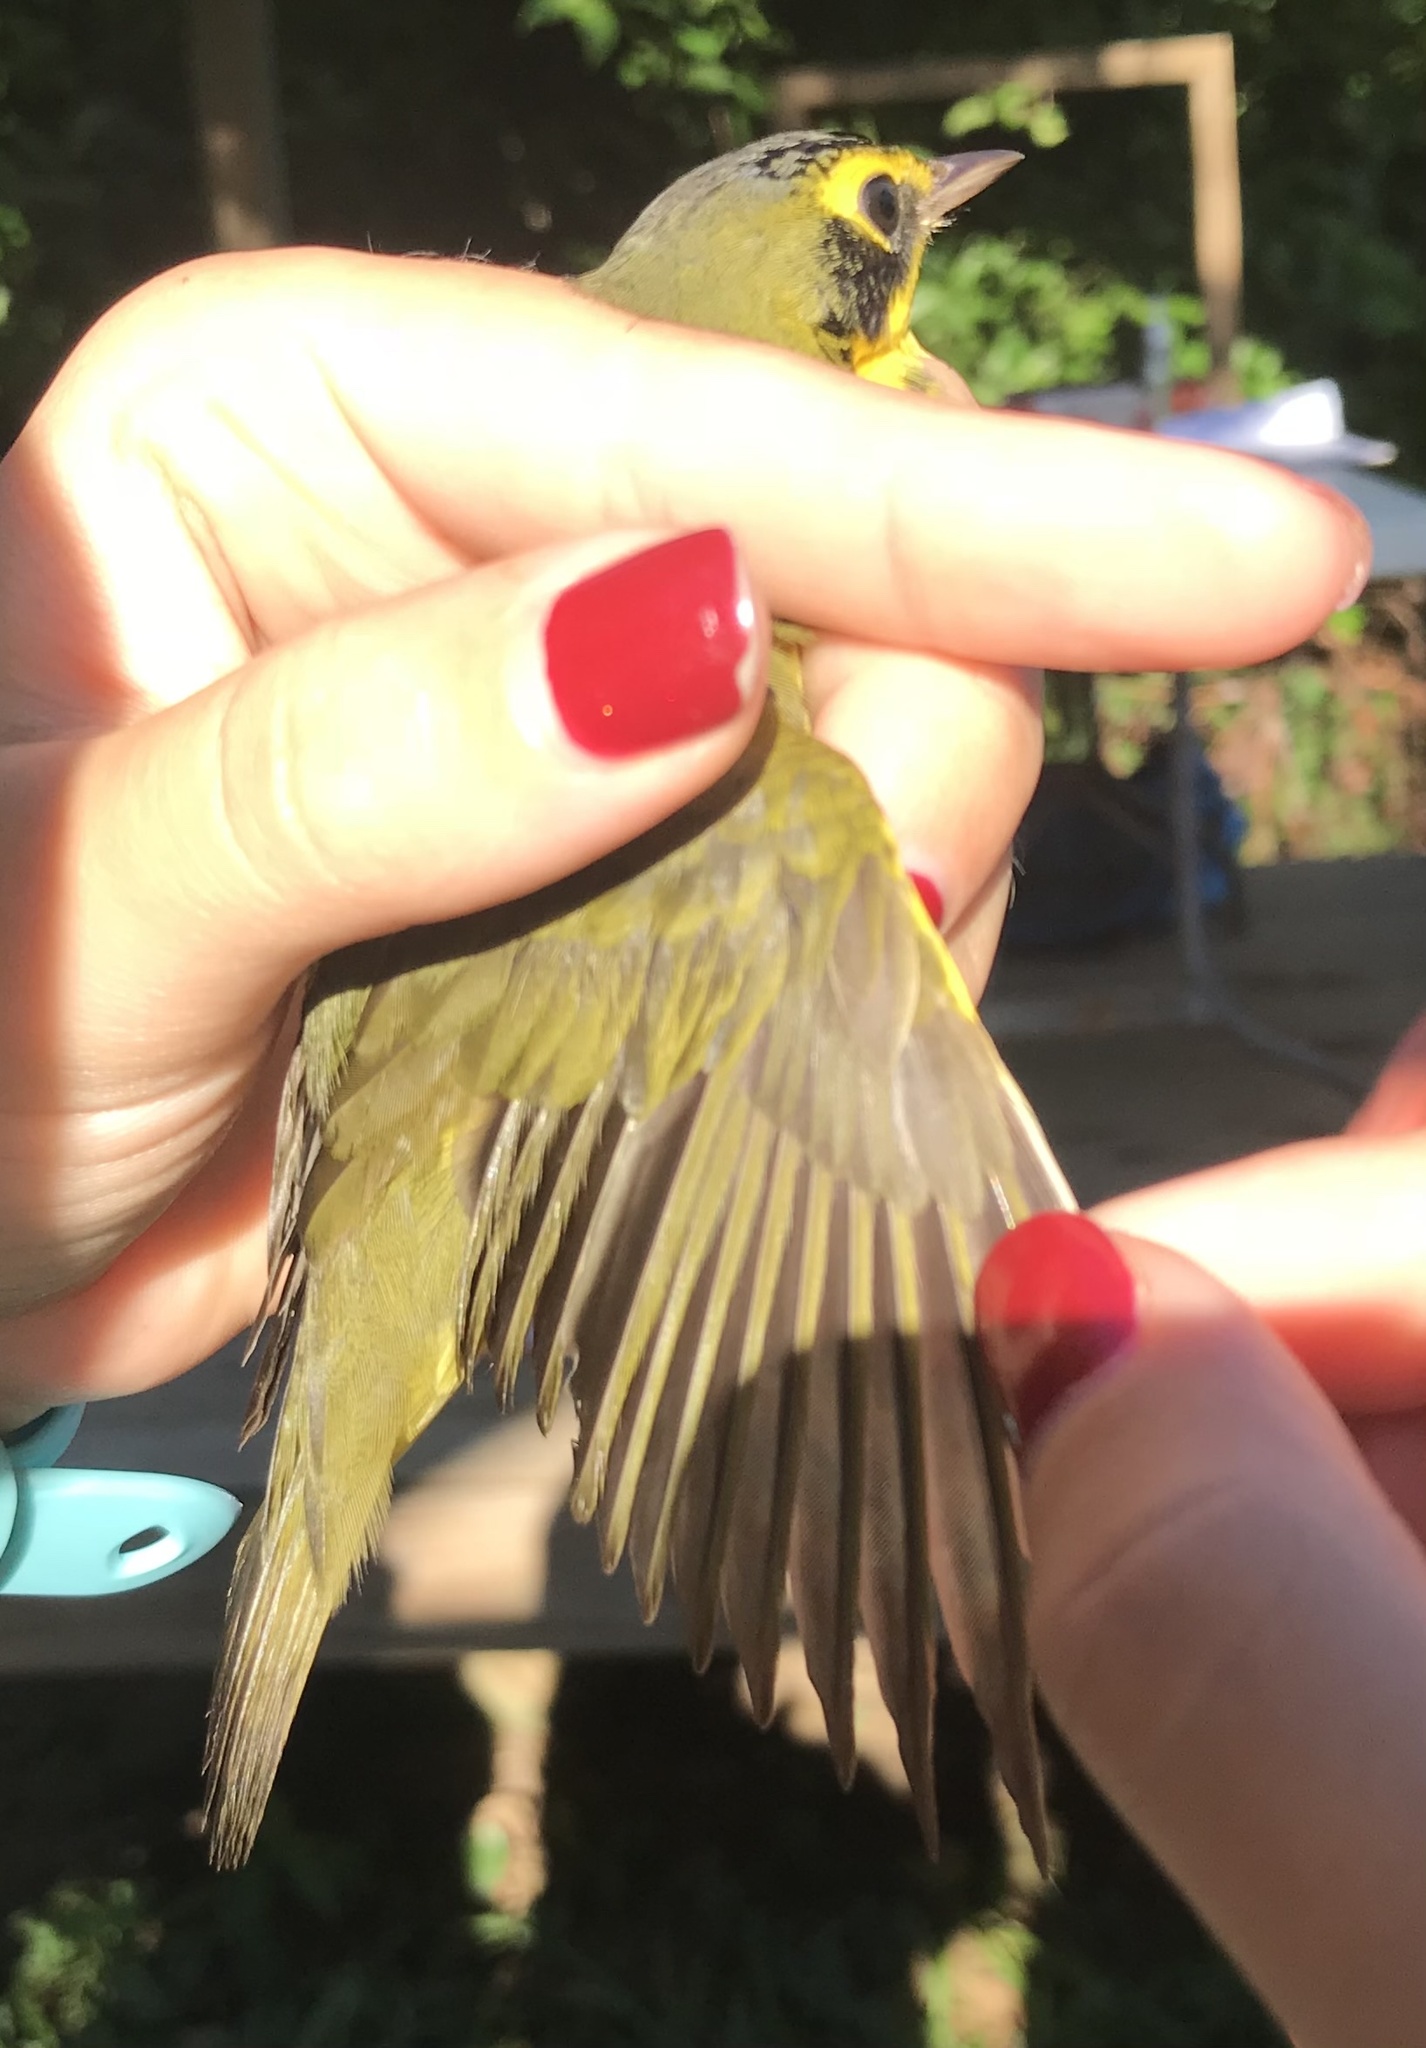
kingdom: Animalia
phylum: Chordata
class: Aves
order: Passeriformes
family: Parulidae
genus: Geothlypis
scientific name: Geothlypis formosa
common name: Kentucky warbler
